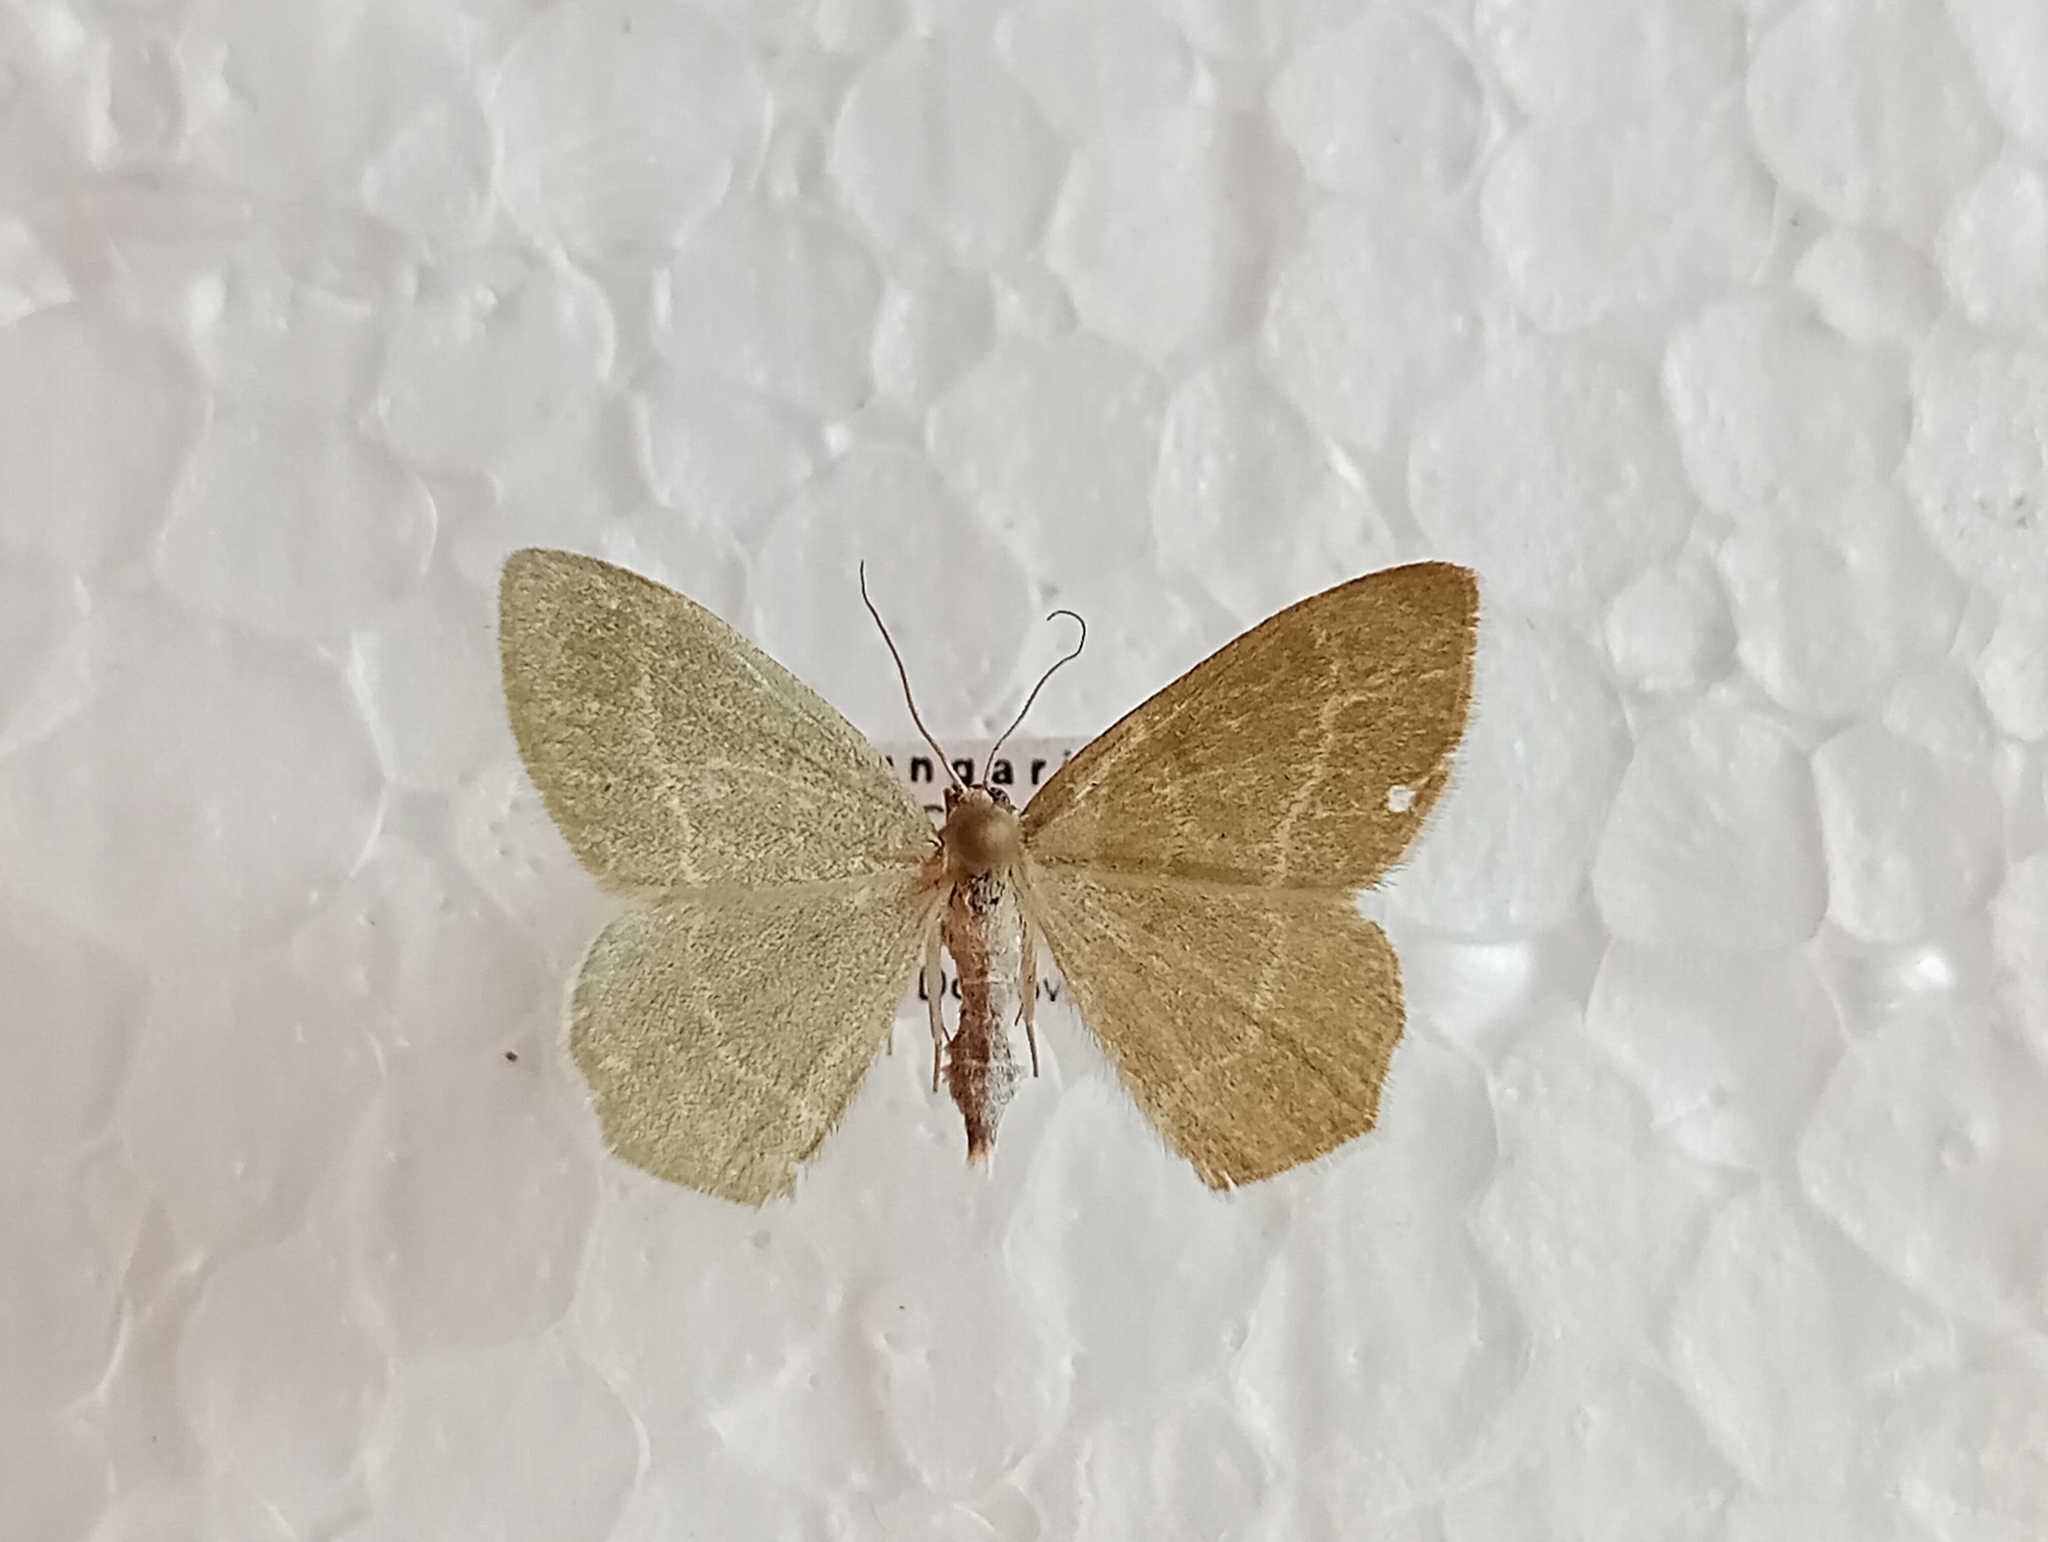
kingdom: Animalia
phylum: Arthropoda
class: Insecta
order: Lepidoptera
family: Geometridae
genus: Chlorissa
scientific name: Chlorissa cloraria
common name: Southern grass emerald
